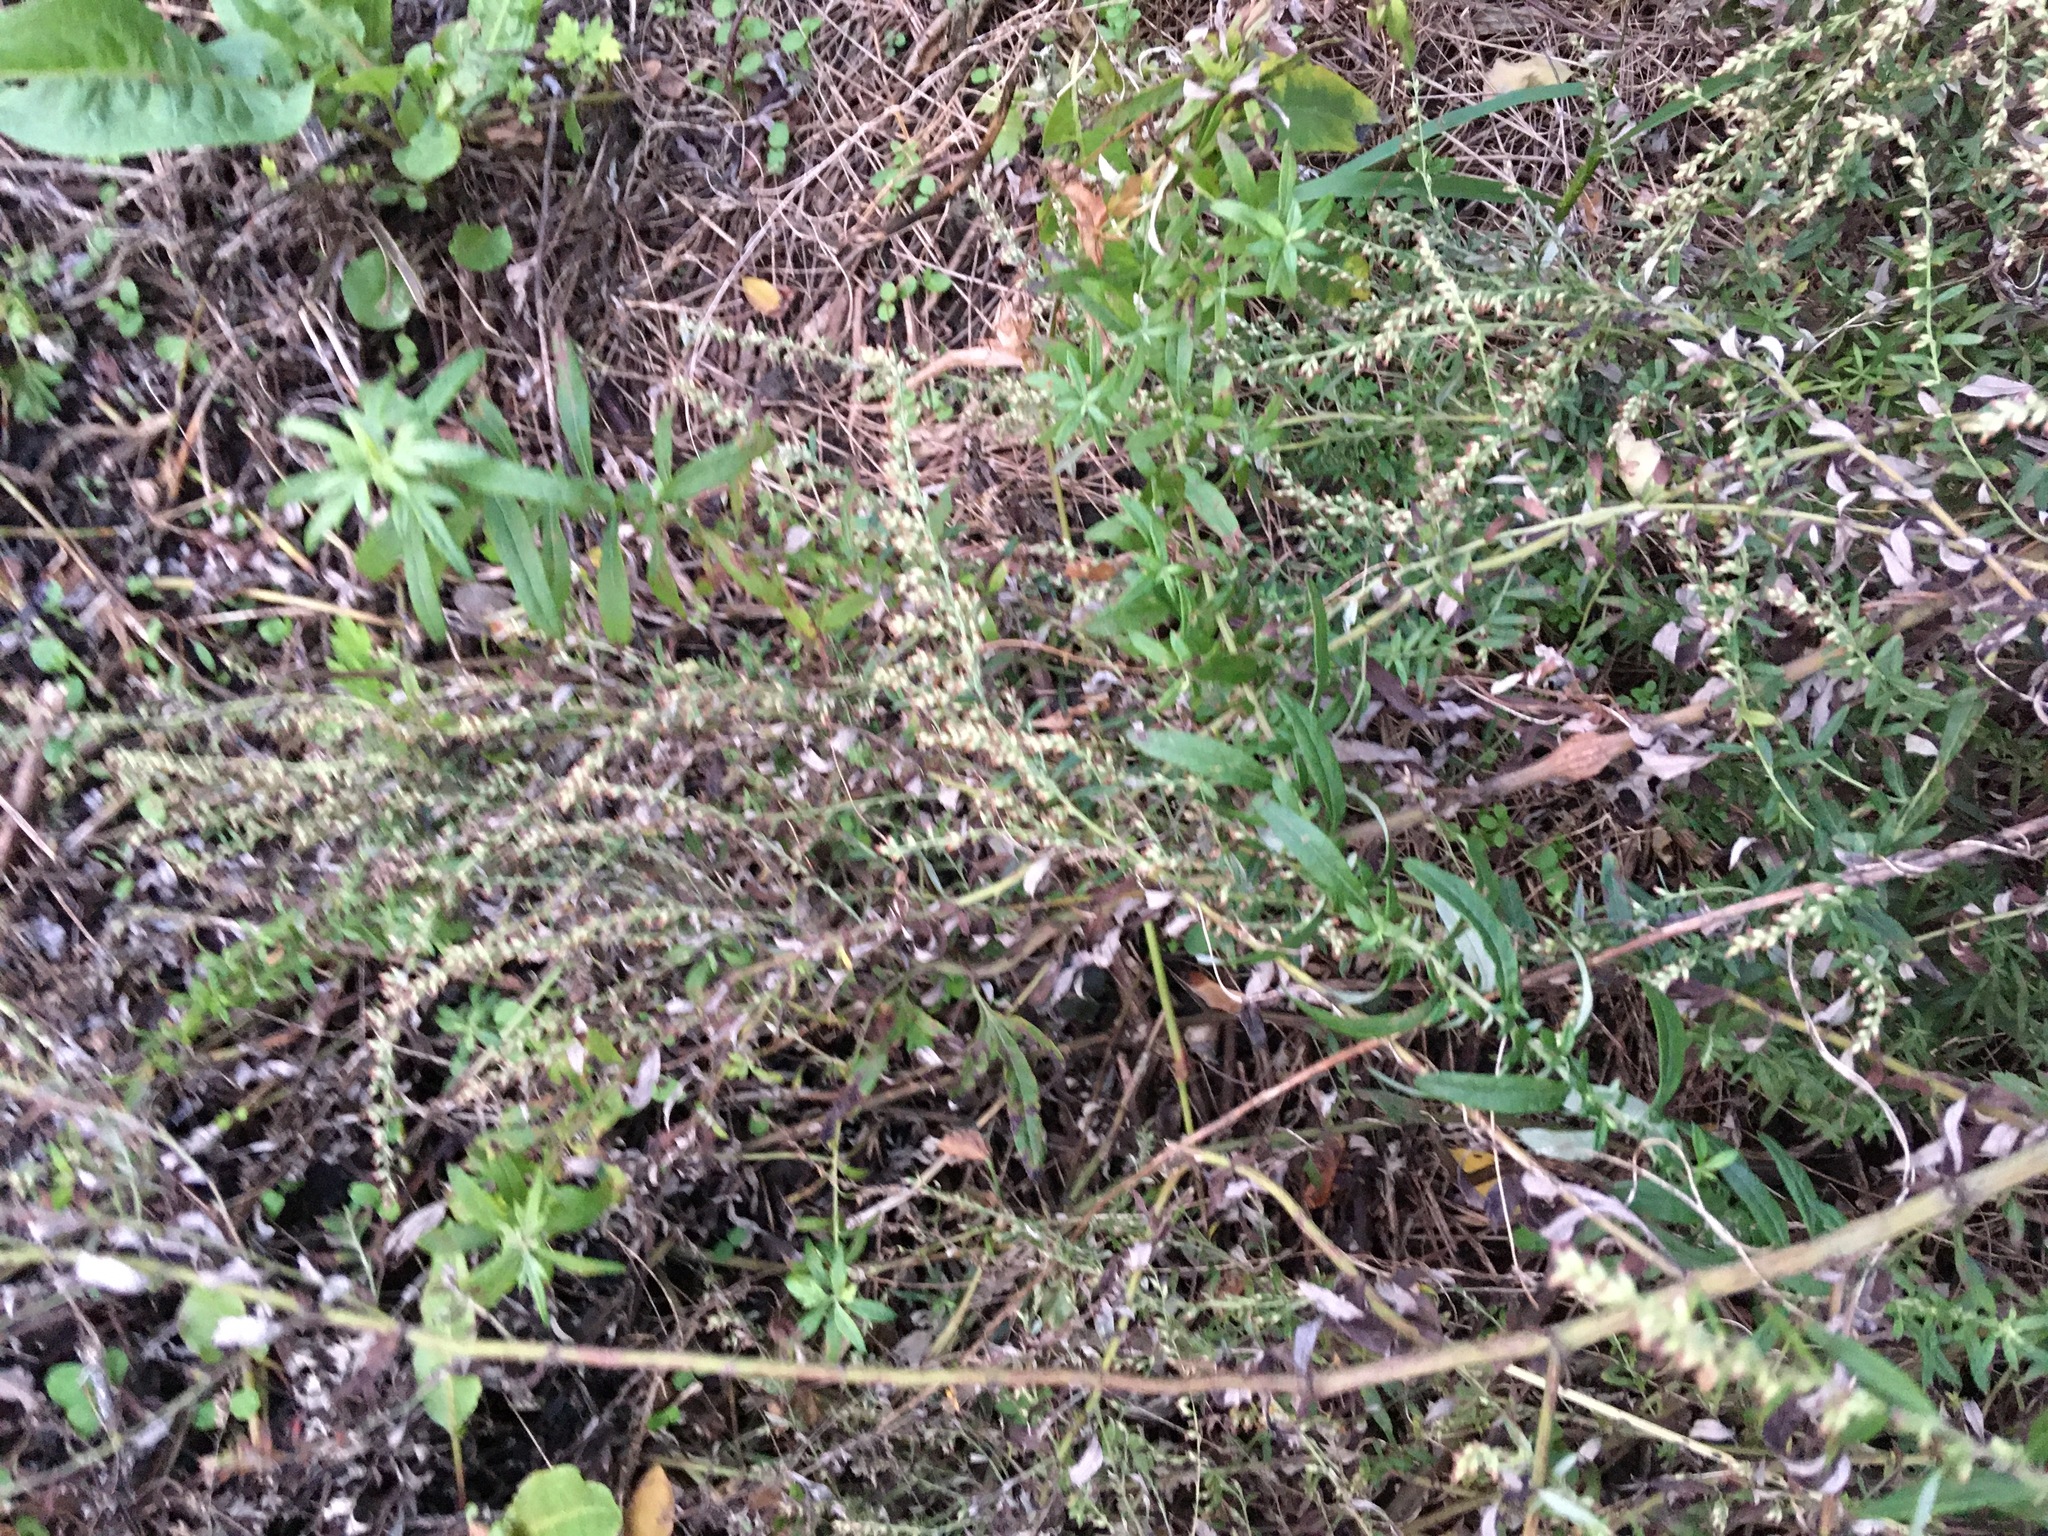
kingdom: Plantae
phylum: Tracheophyta
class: Magnoliopsida
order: Asterales
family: Asteraceae
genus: Artemisia
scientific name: Artemisia vulgaris
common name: Mugwort
